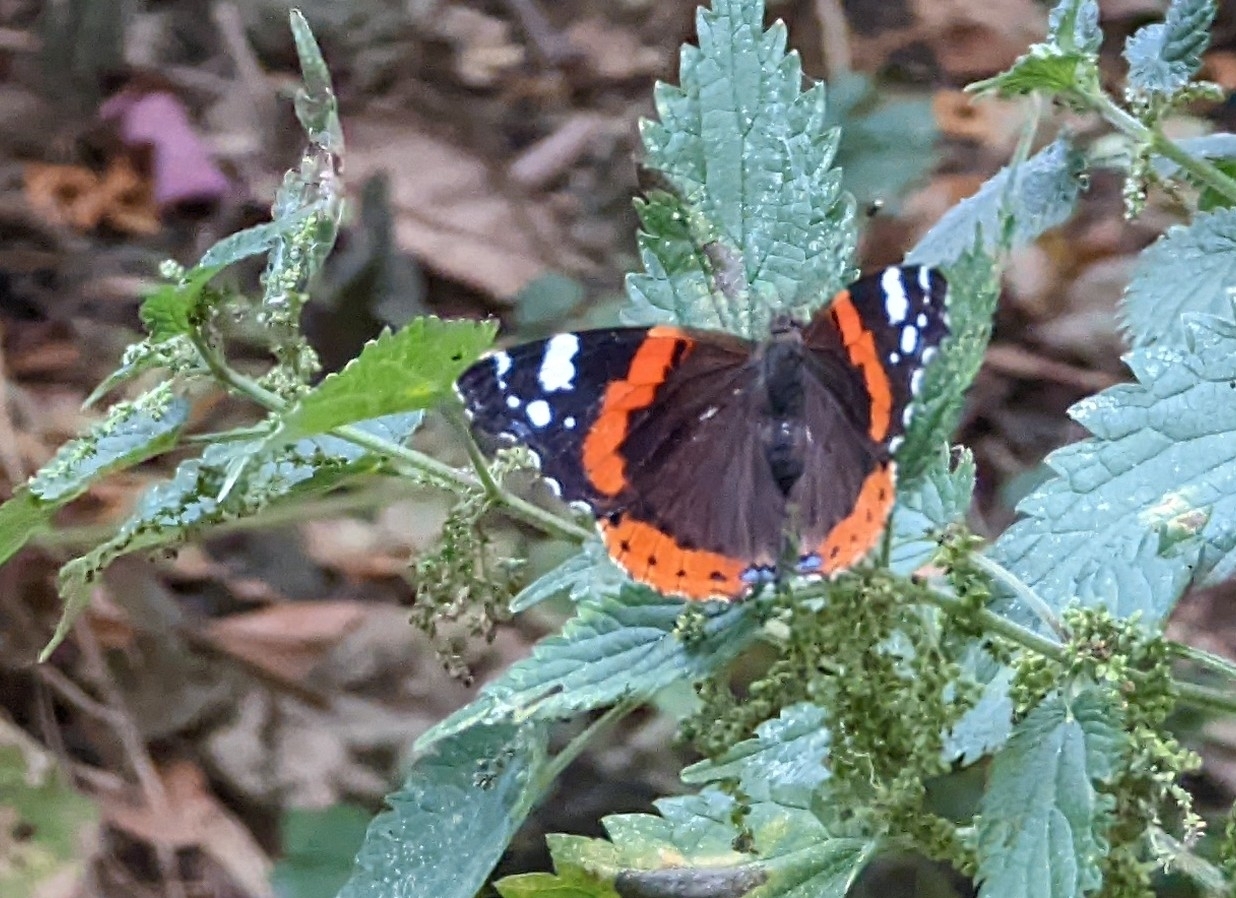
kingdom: Animalia
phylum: Arthropoda
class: Insecta
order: Lepidoptera
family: Nymphalidae
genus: Vanessa
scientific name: Vanessa atalanta
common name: Red admiral
